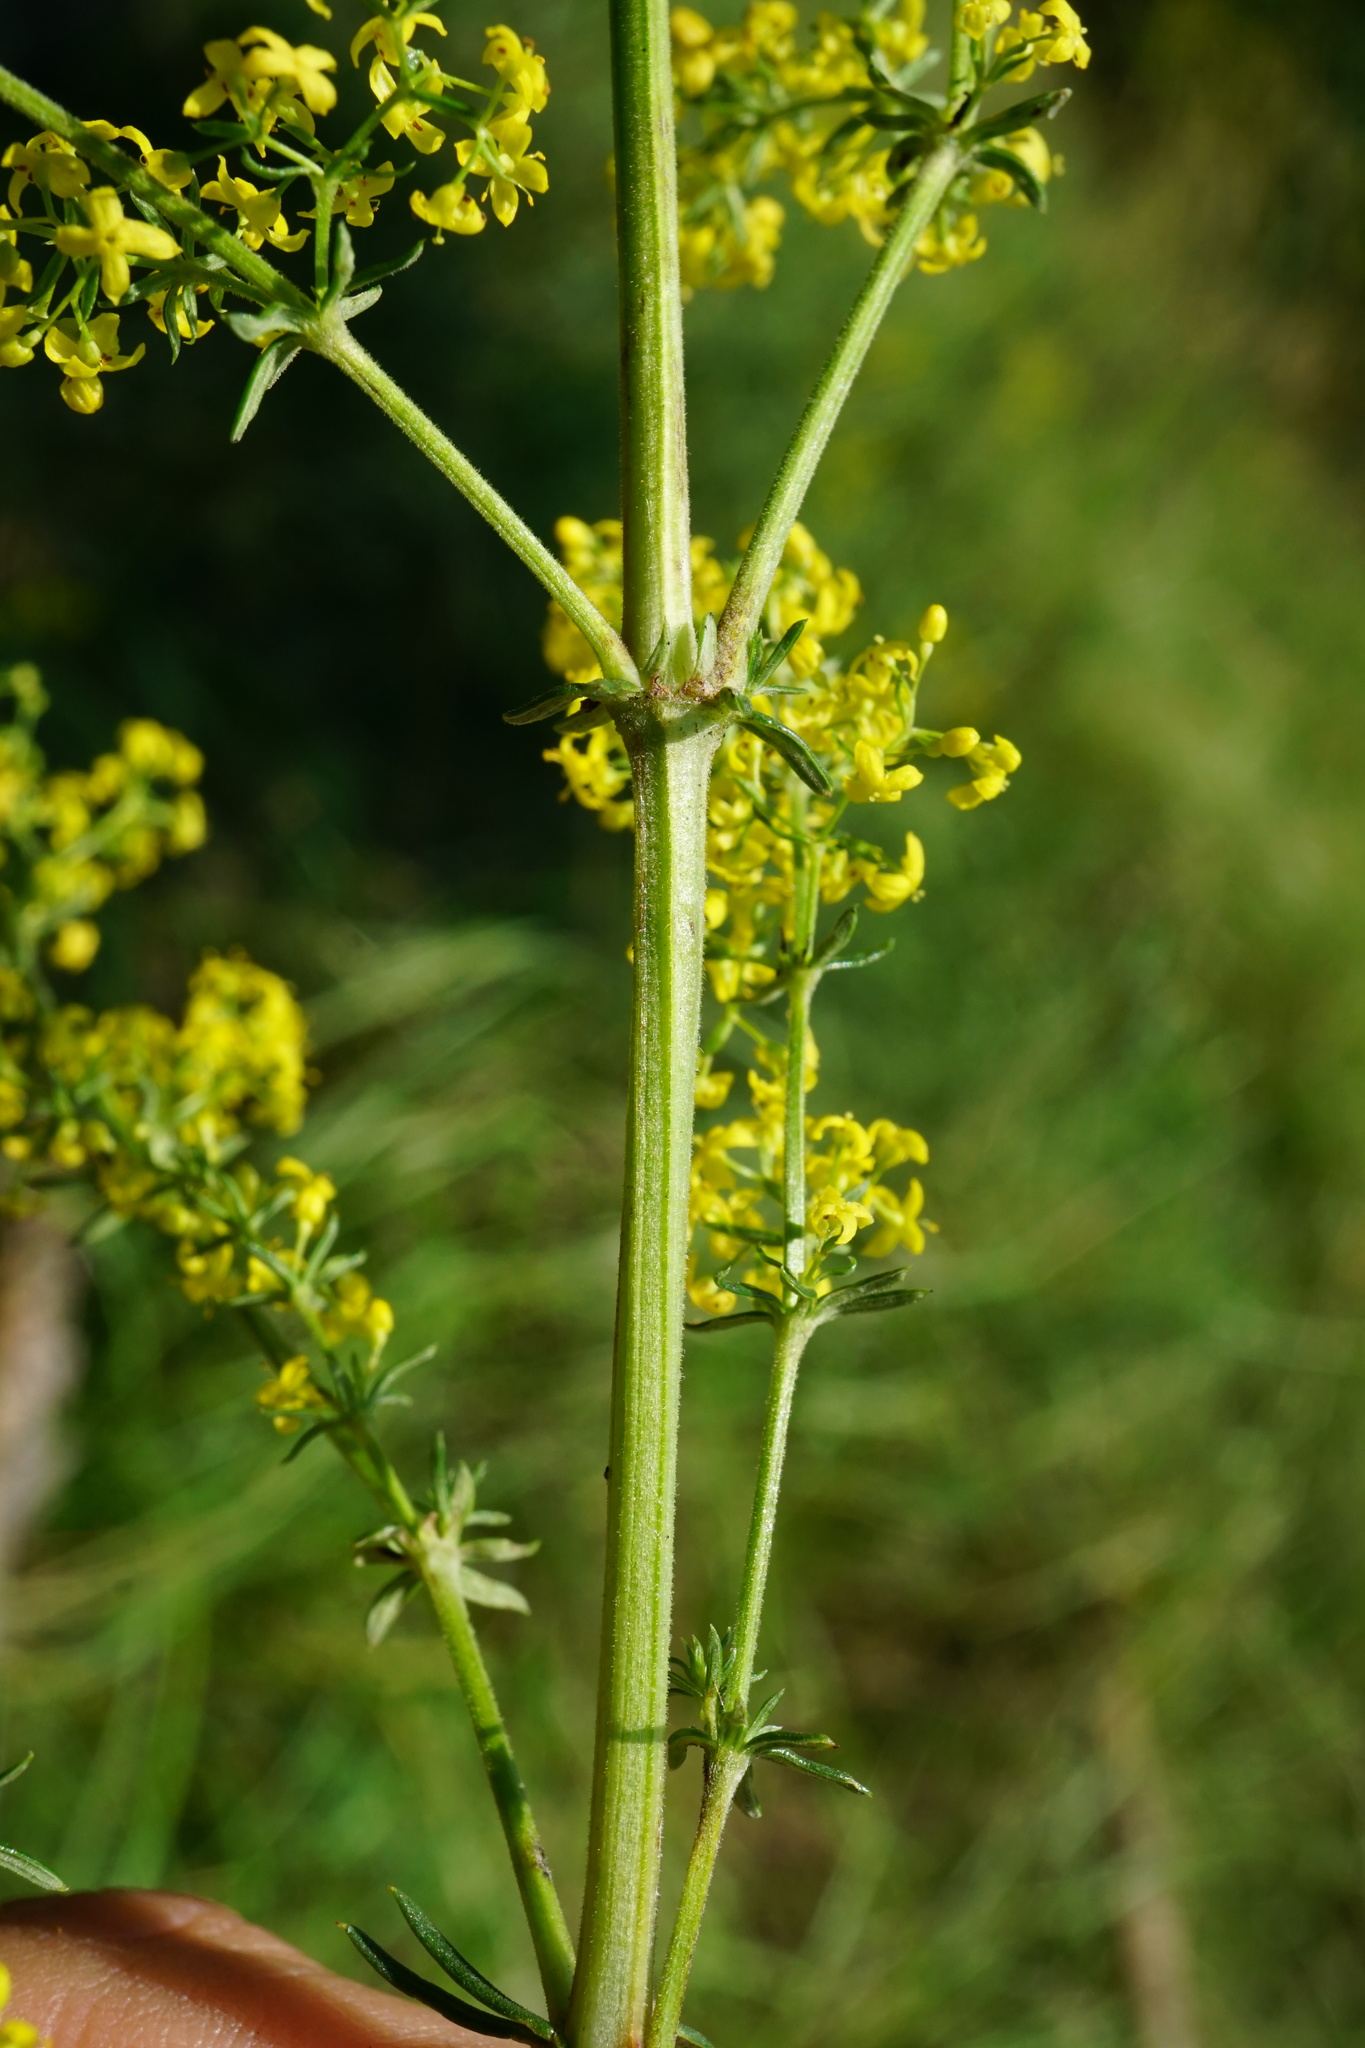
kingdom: Plantae
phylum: Tracheophyta
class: Magnoliopsida
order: Gentianales
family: Rubiaceae
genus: Galium
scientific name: Galium verum
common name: Lady's bedstraw
